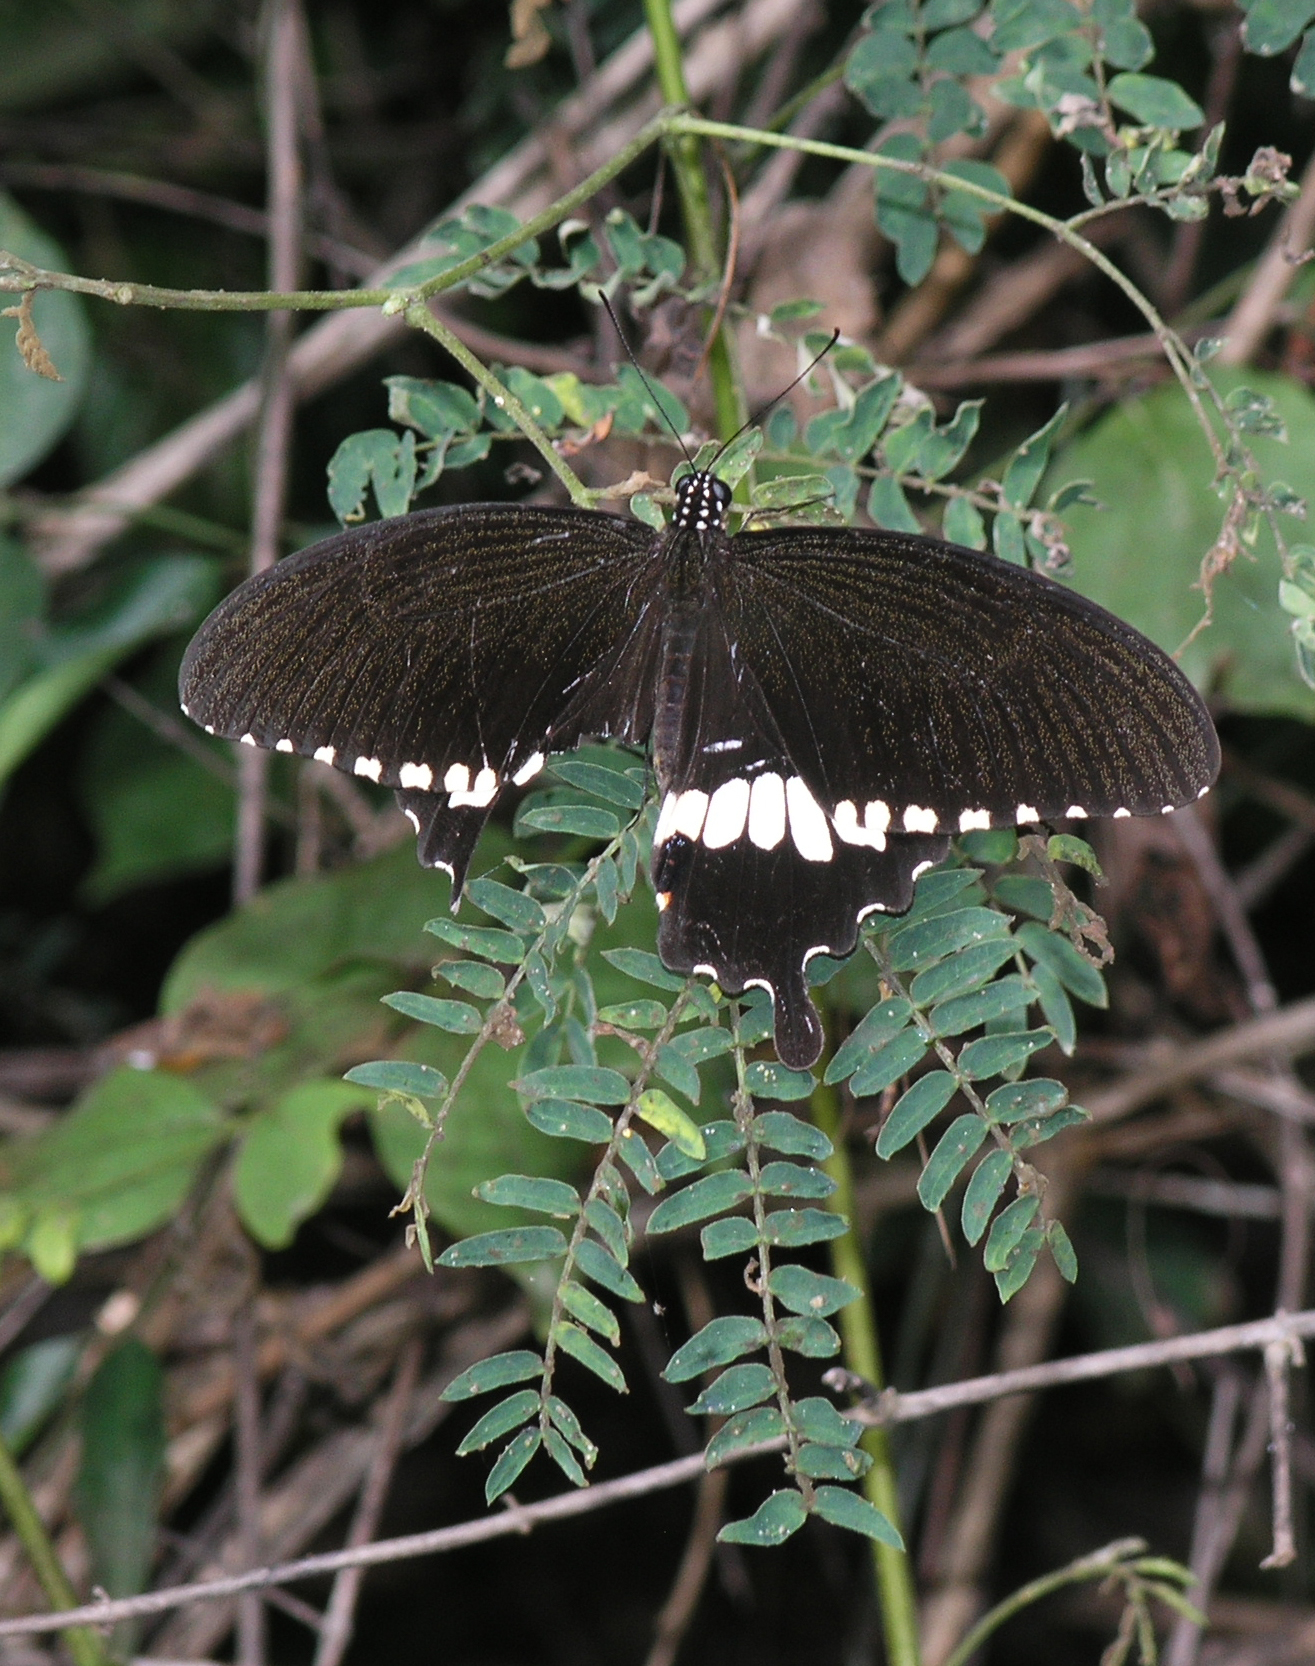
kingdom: Animalia
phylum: Arthropoda
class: Insecta
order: Lepidoptera
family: Papilionidae
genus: Papilio
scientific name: Papilio polytes
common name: Common mormon
